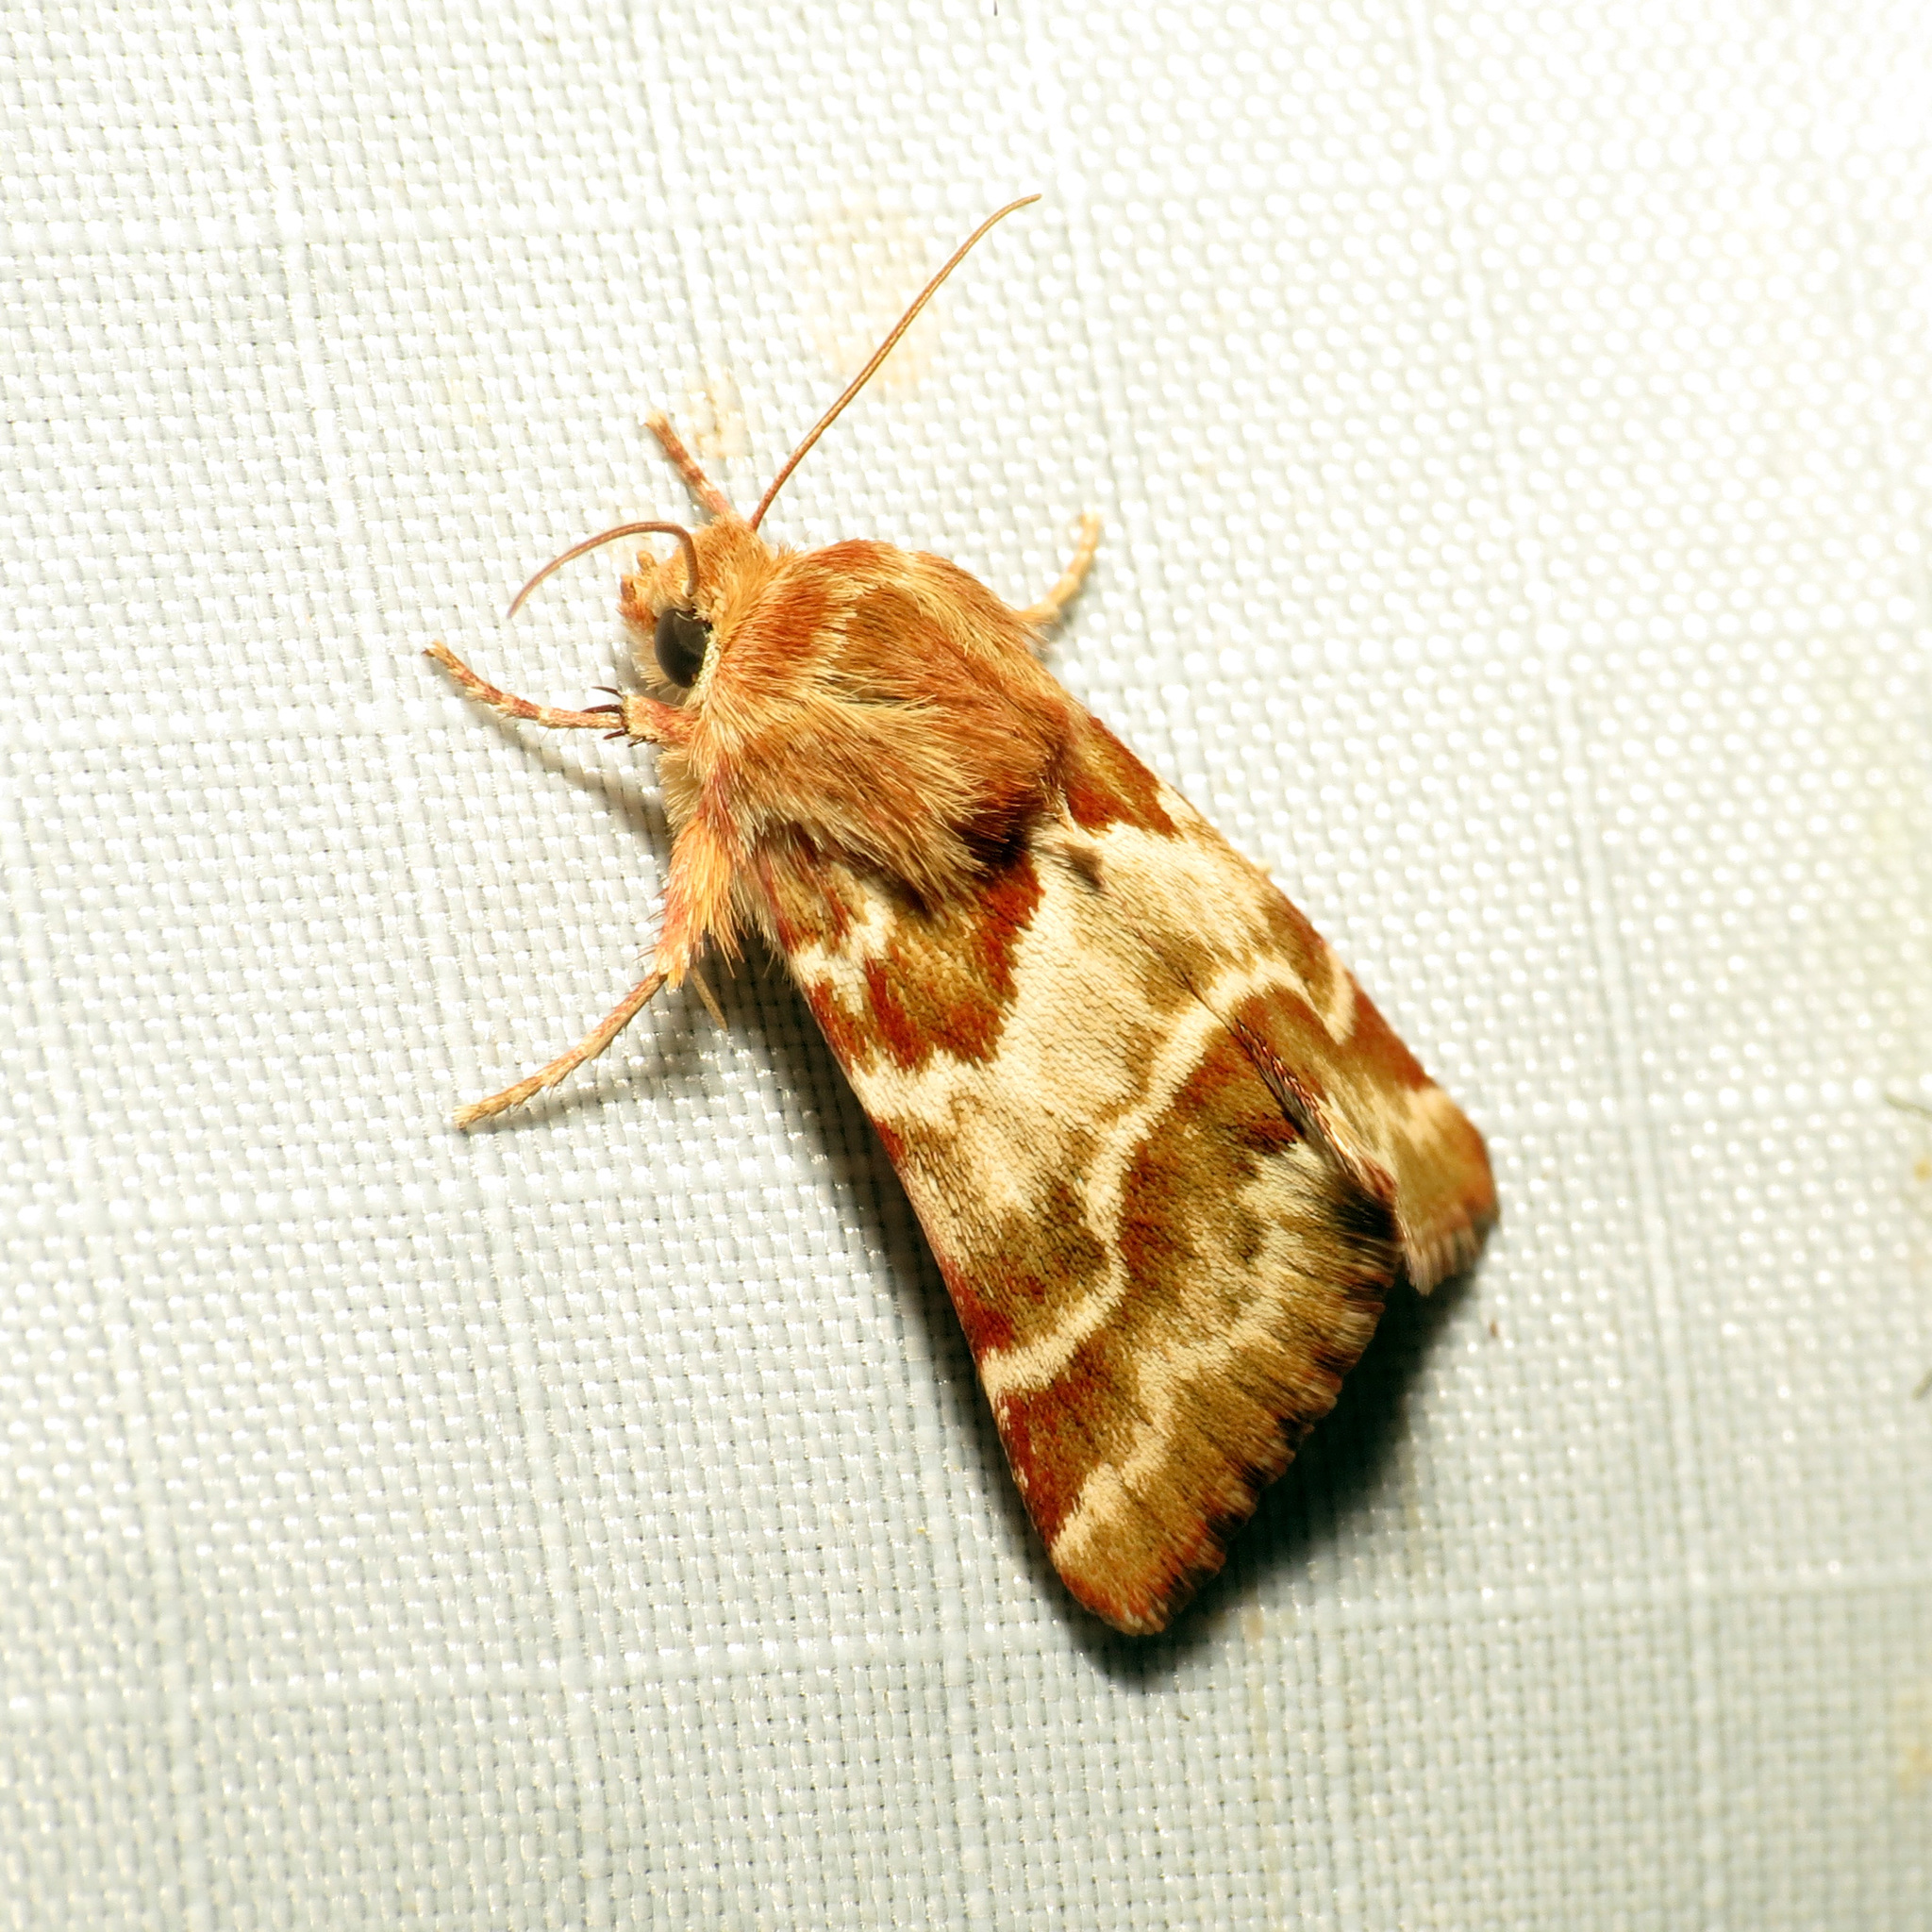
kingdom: Animalia
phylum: Arthropoda
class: Insecta
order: Lepidoptera
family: Noctuidae
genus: Schinia
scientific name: Schinia errans
